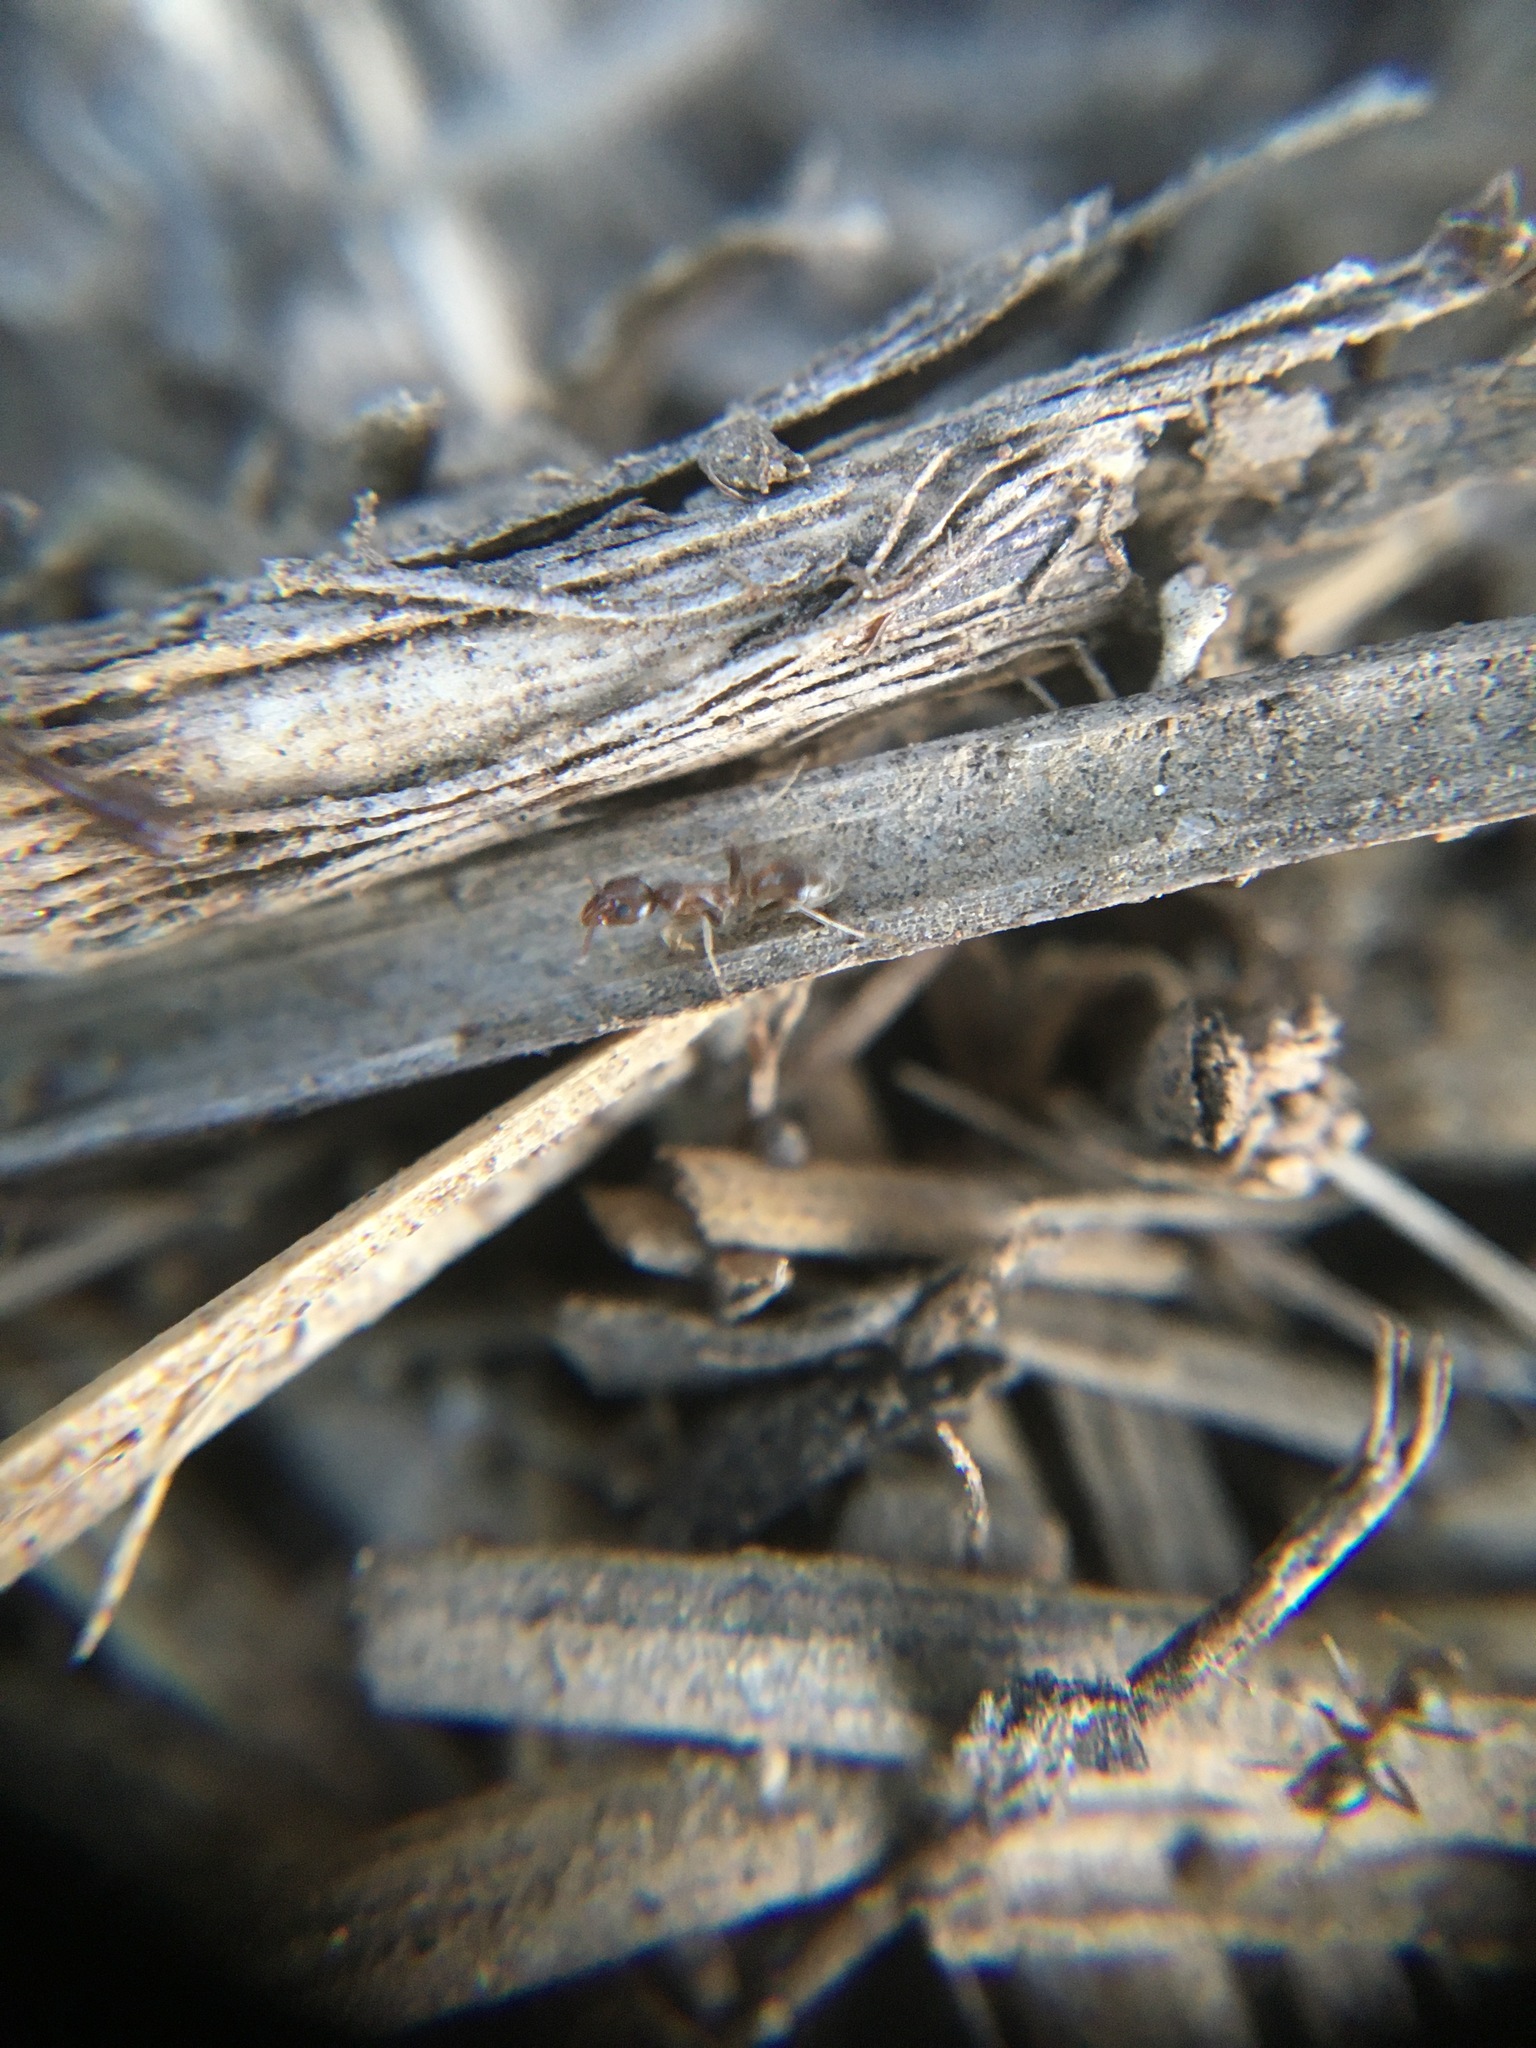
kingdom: Animalia
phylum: Arthropoda
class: Insecta
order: Hymenoptera
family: Formicidae
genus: Linepithema
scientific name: Linepithema humile
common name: Argentine ant
